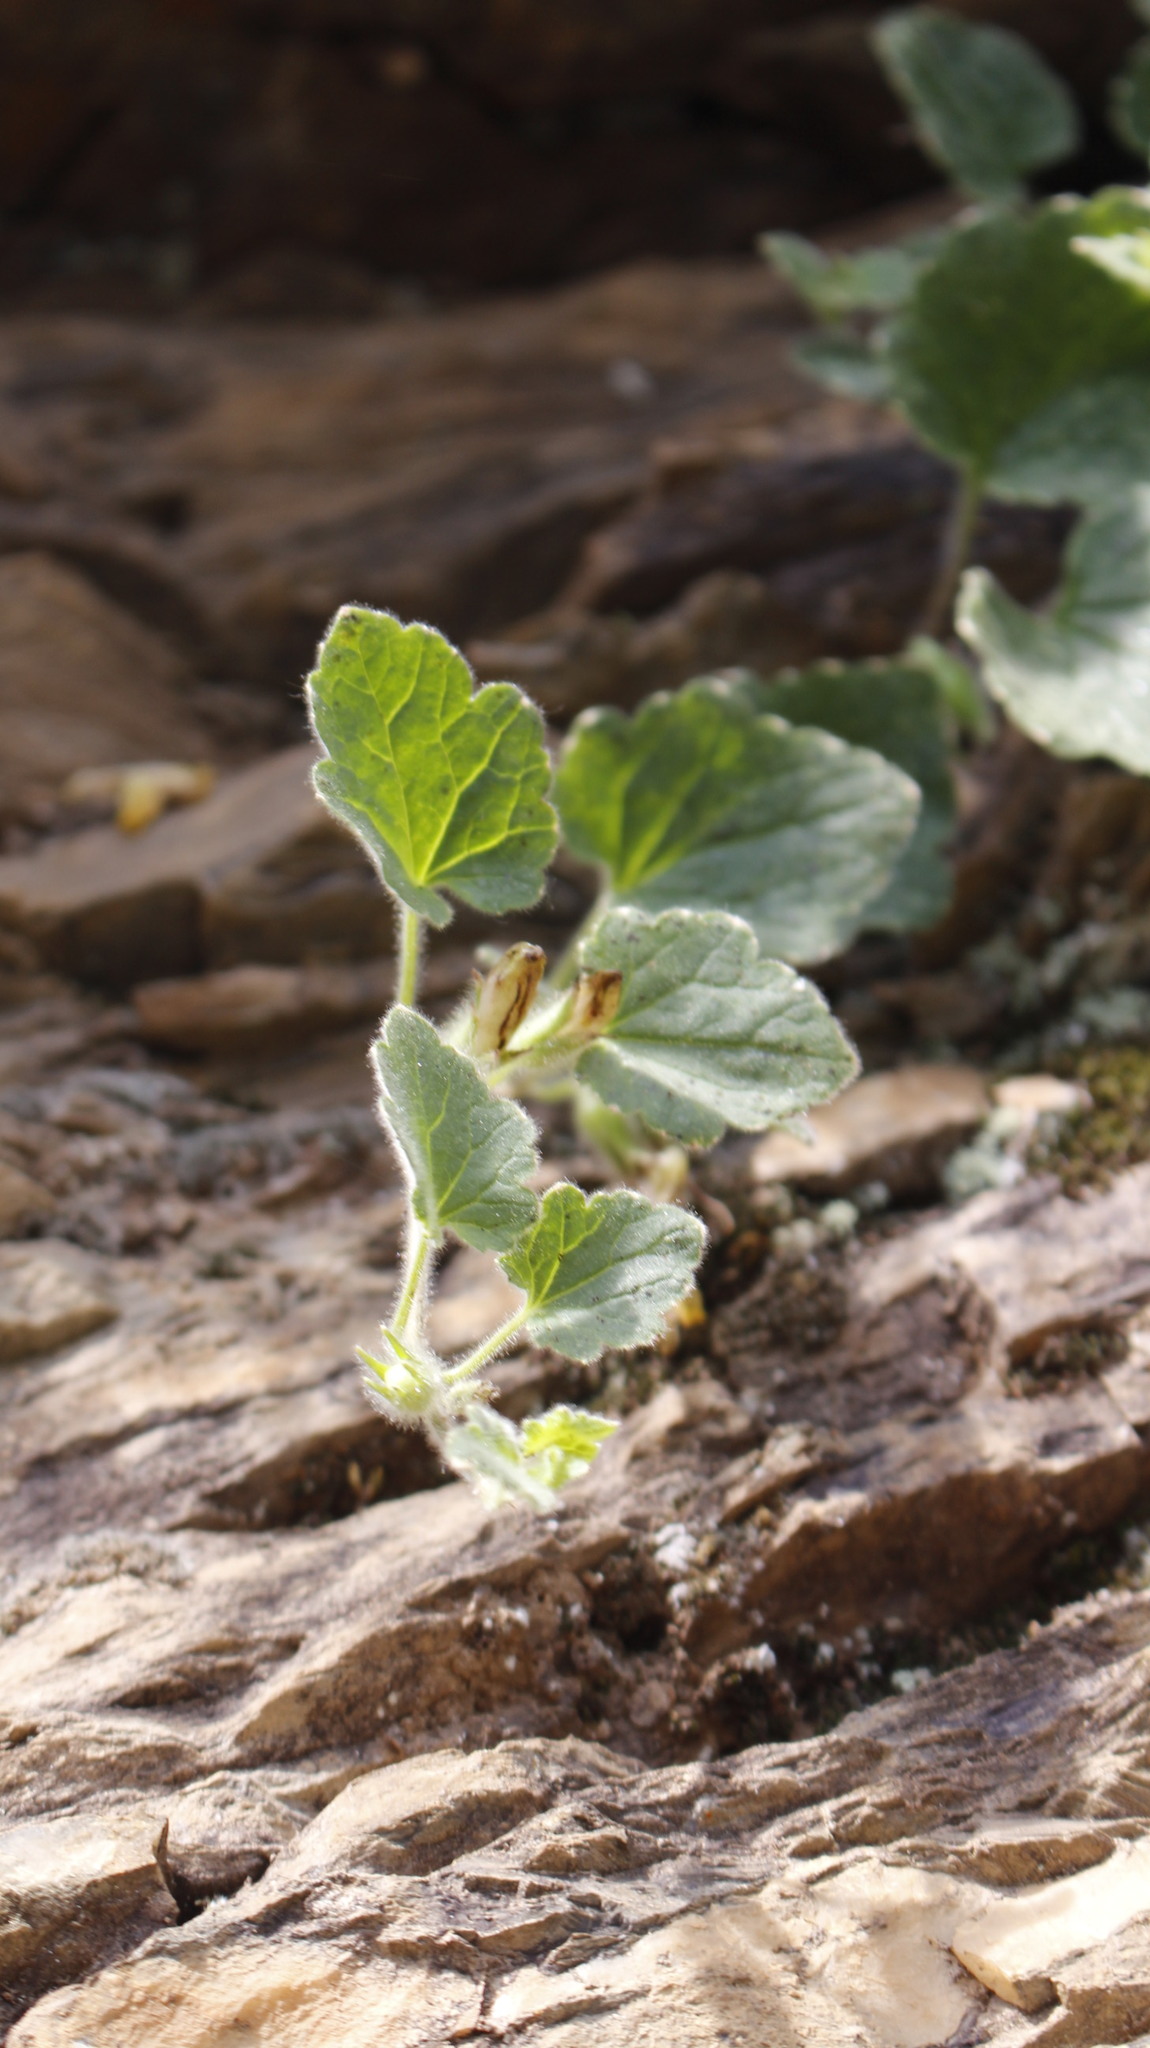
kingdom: Plantae
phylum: Tracheophyta
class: Magnoliopsida
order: Lamiales
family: Plantaginaceae
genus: Asarina
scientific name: Asarina procumbens
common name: Trailing snapdragon
